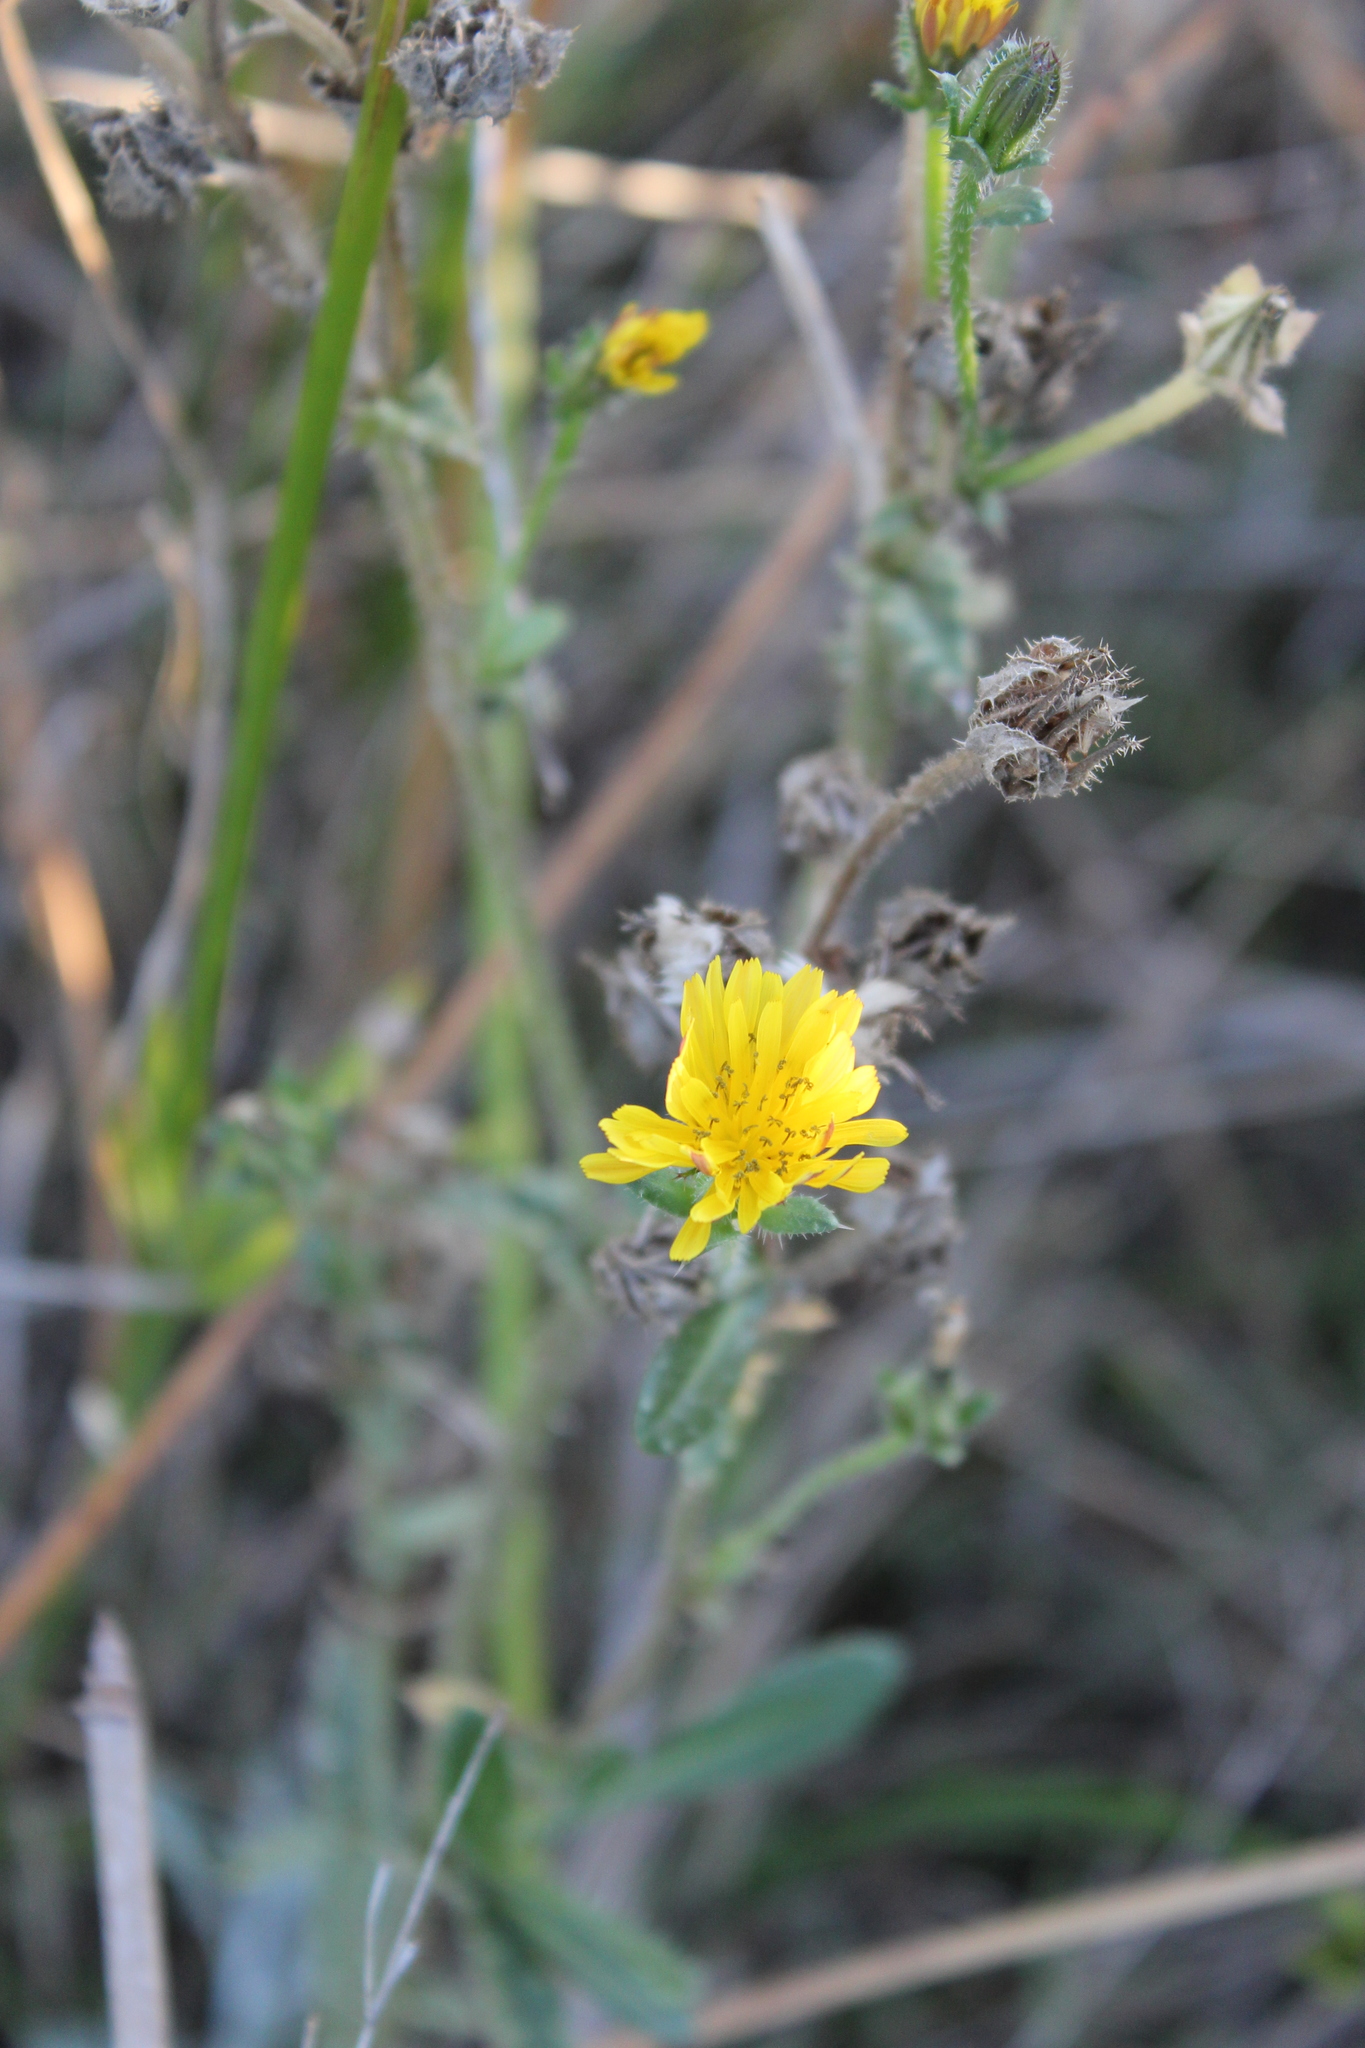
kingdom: Plantae
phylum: Tracheophyta
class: Magnoliopsida
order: Asterales
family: Asteraceae
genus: Helminthotheca
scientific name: Helminthotheca echioides
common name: Ox-tongue
